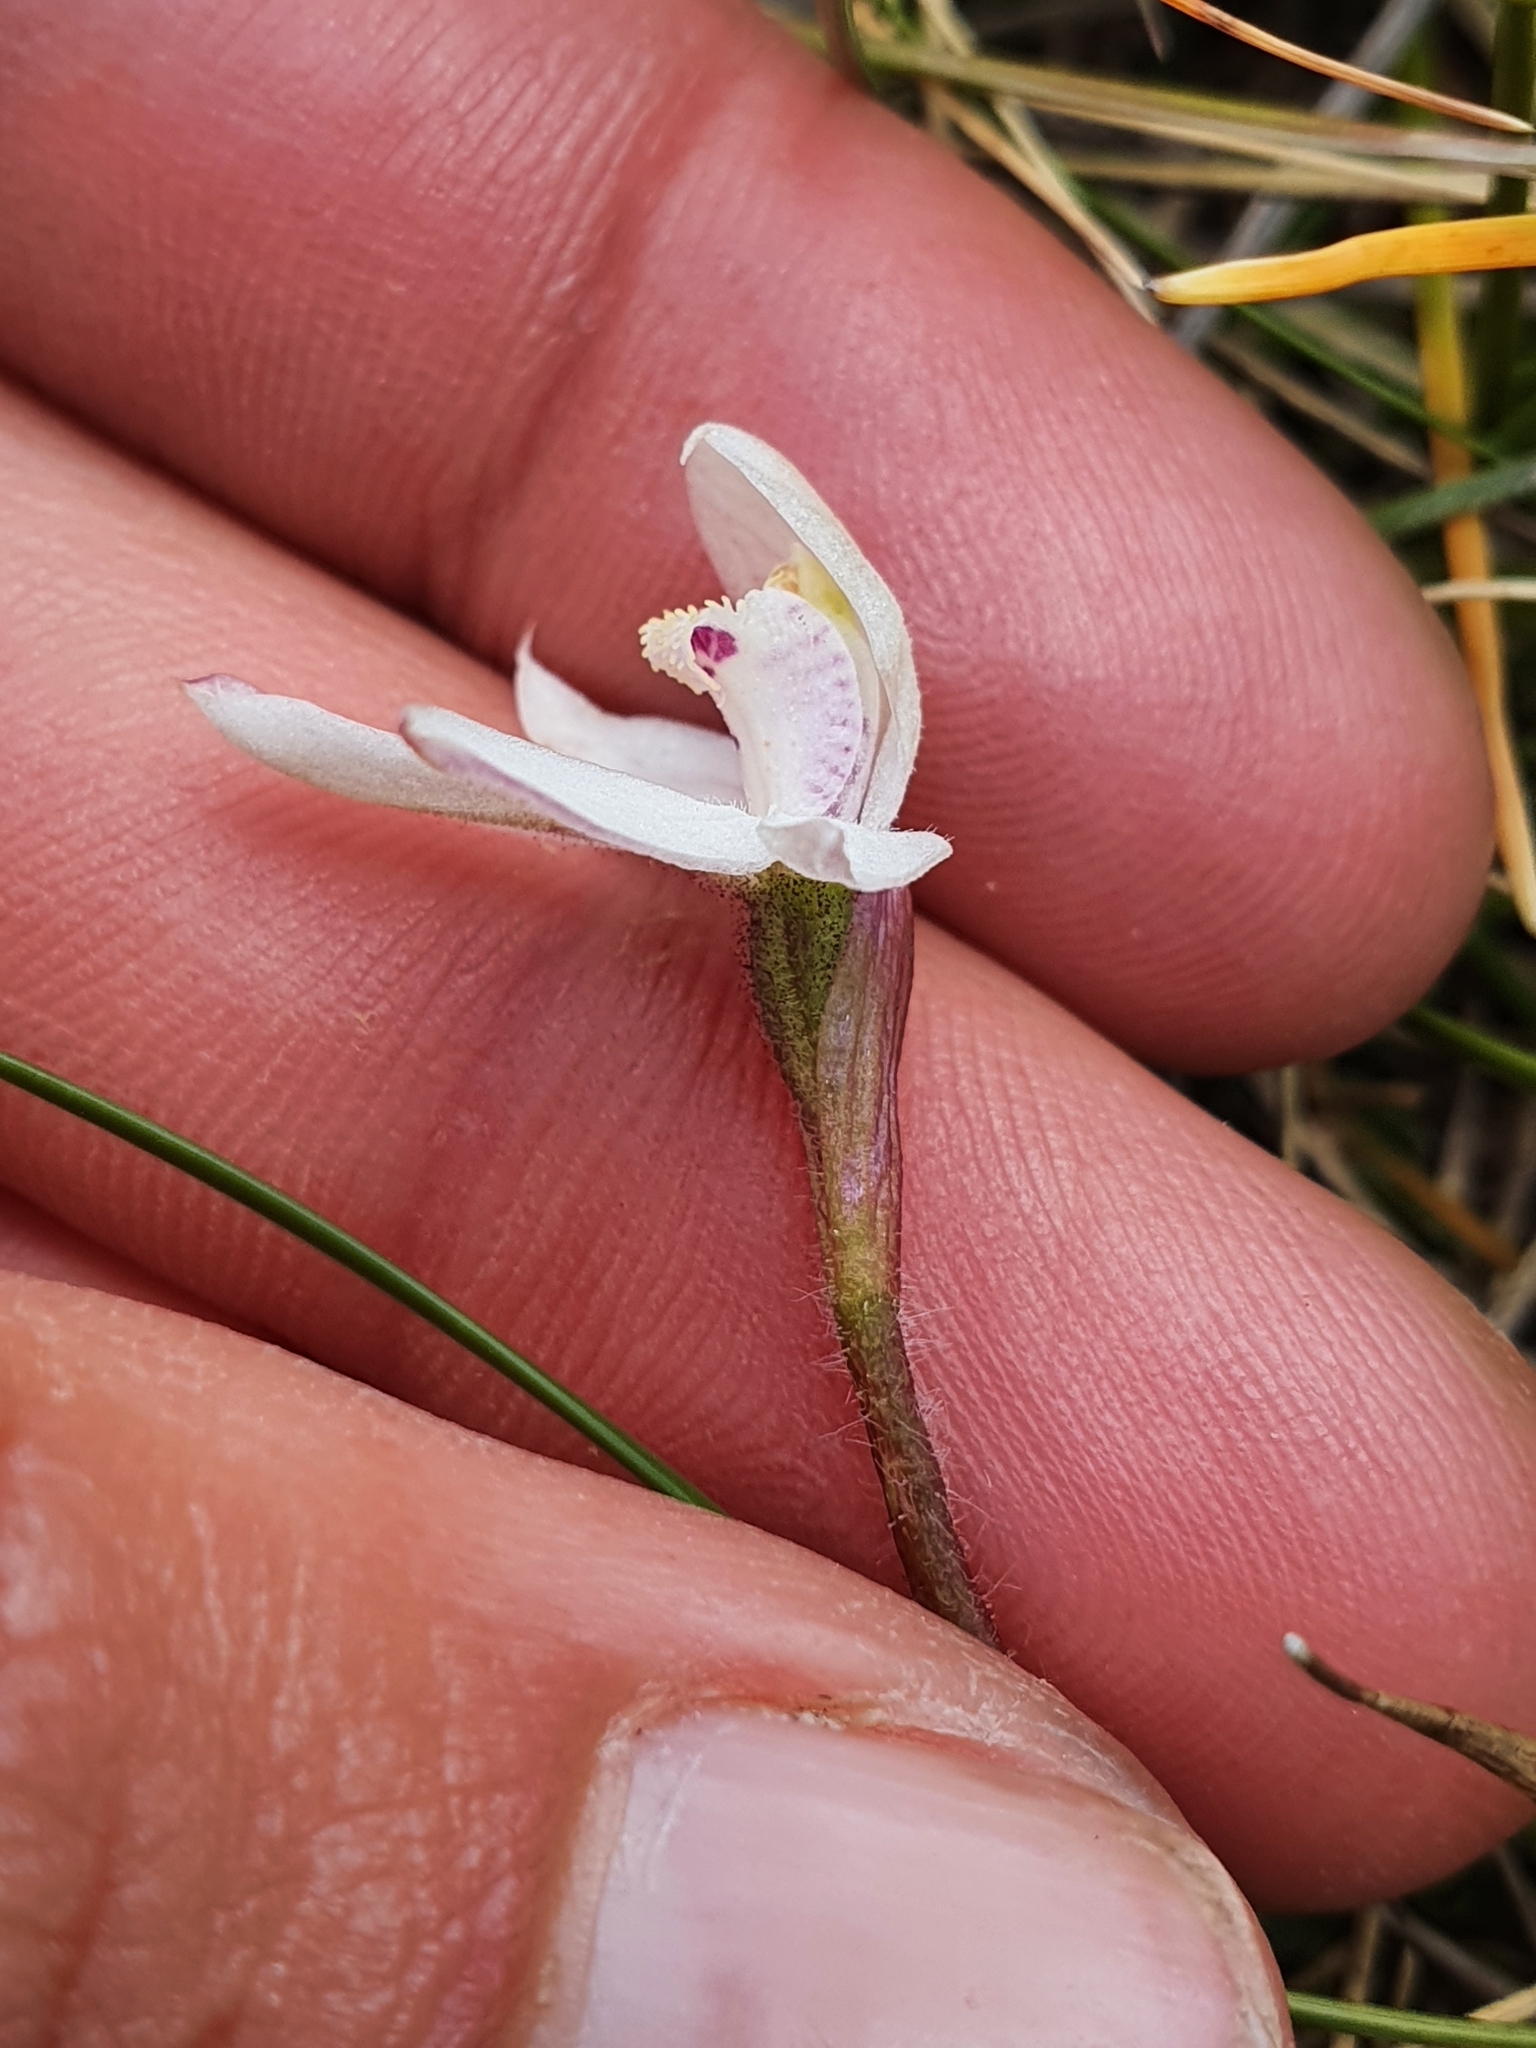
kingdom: Plantae
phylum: Tracheophyta
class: Liliopsida
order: Asparagales
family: Orchidaceae
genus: Caladenia
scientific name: Caladenia lyallii
